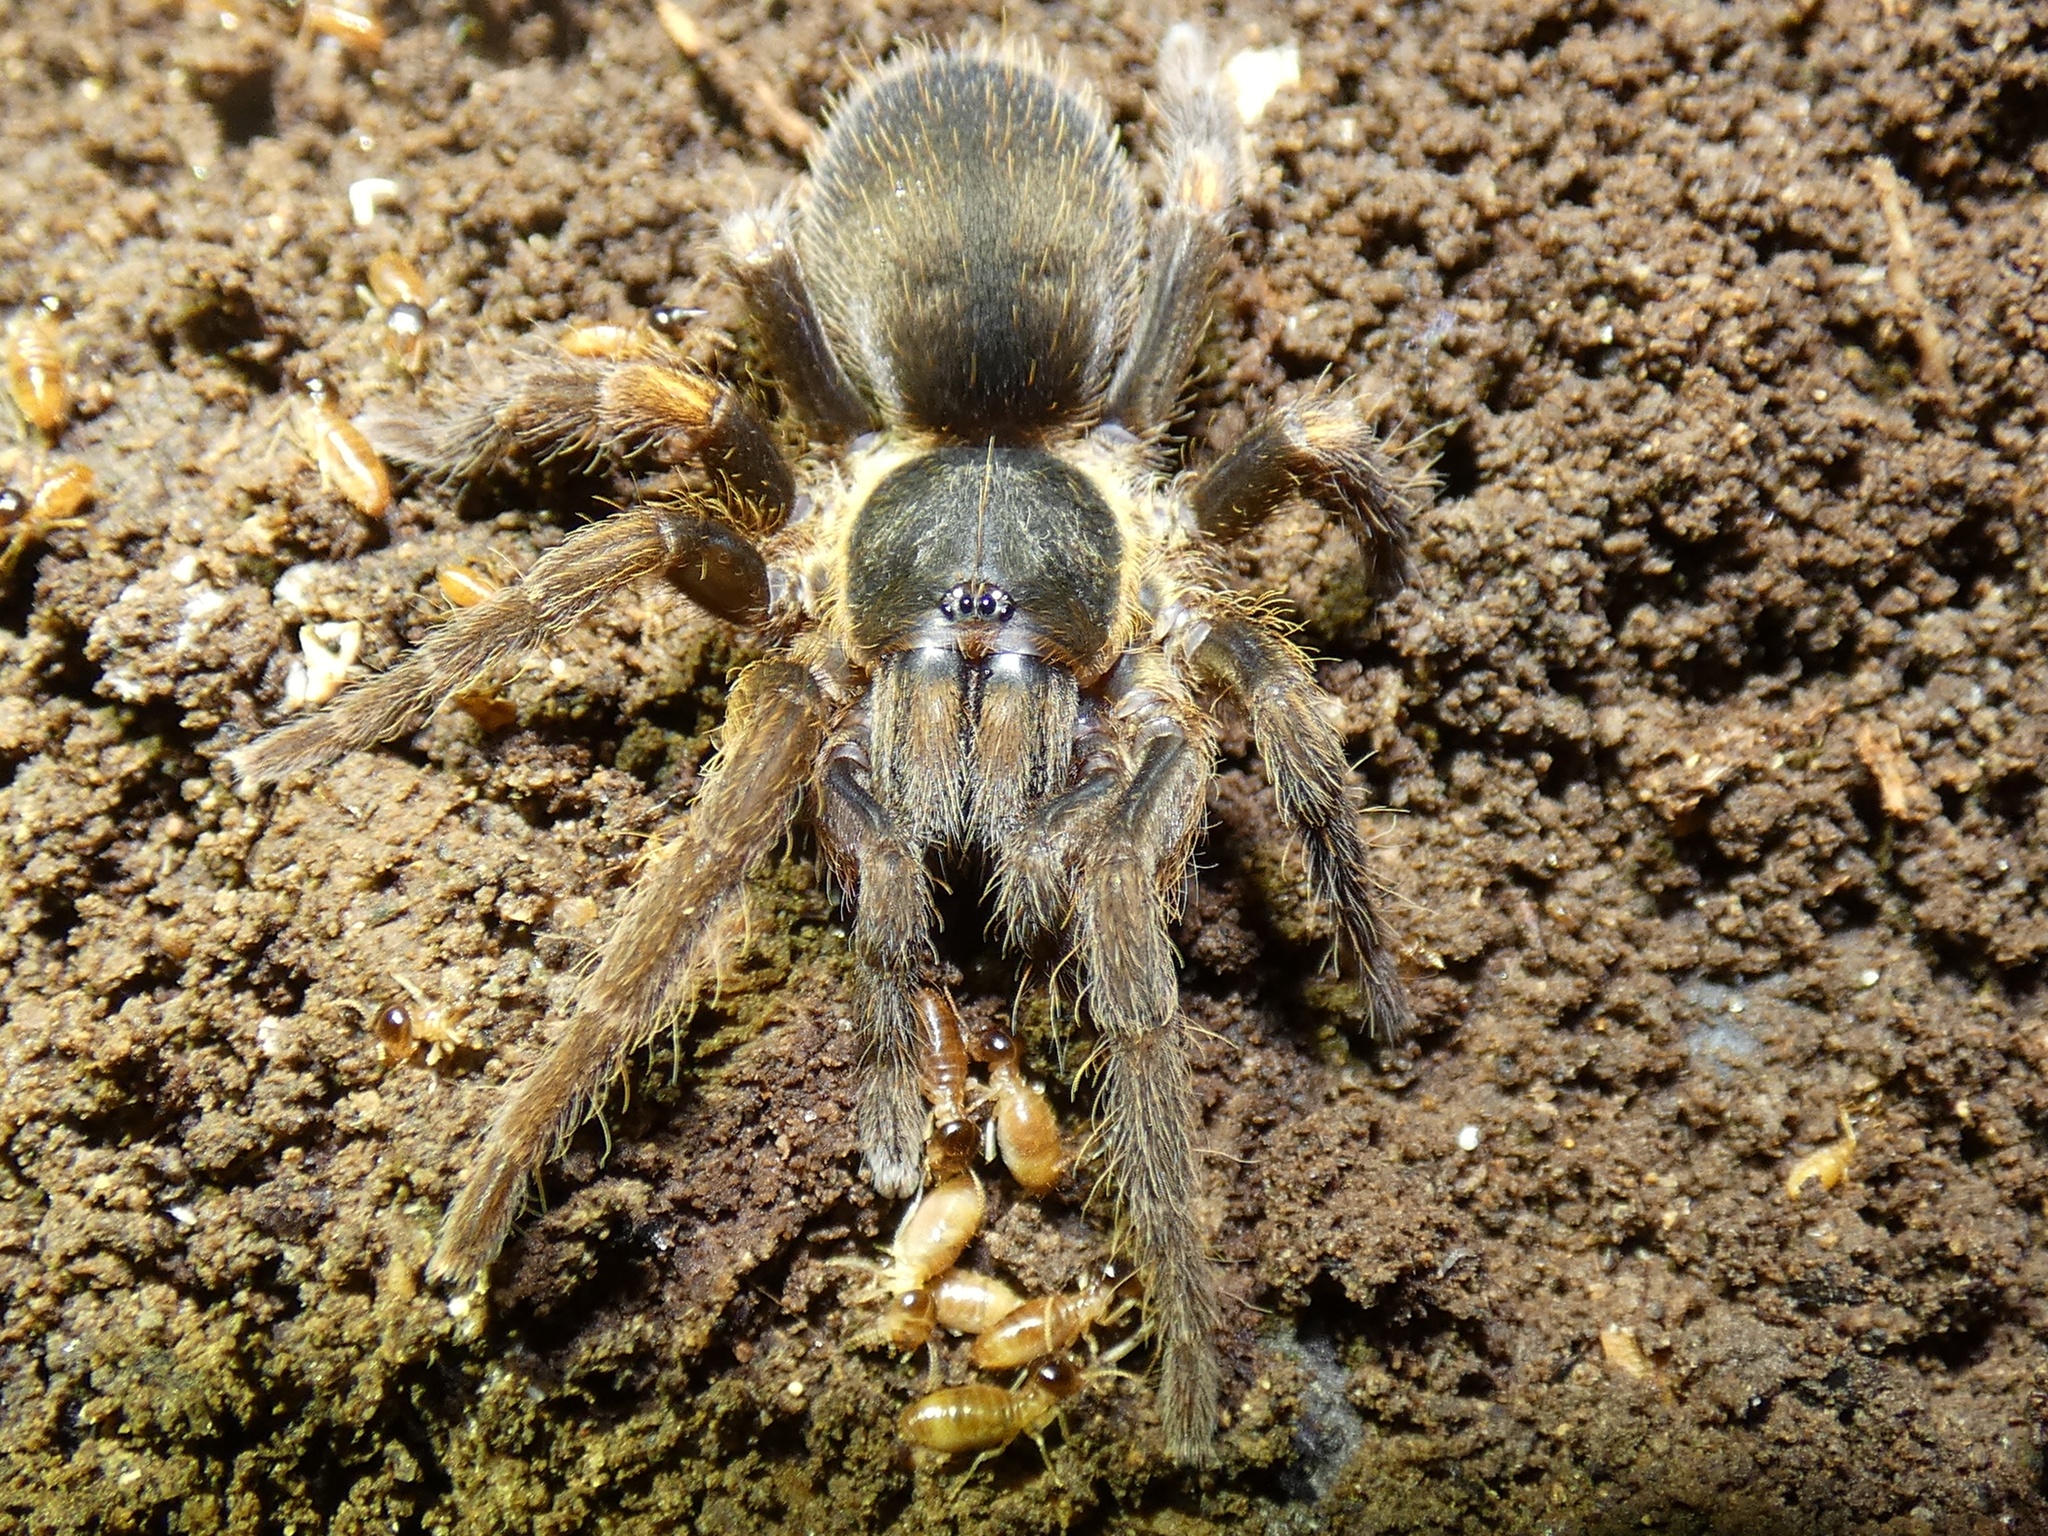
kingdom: Animalia
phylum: Arthropoda
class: Arachnida
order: Araneae
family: Theraphosidae
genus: Euthycaelus
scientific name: Euthycaelus quinteroi
